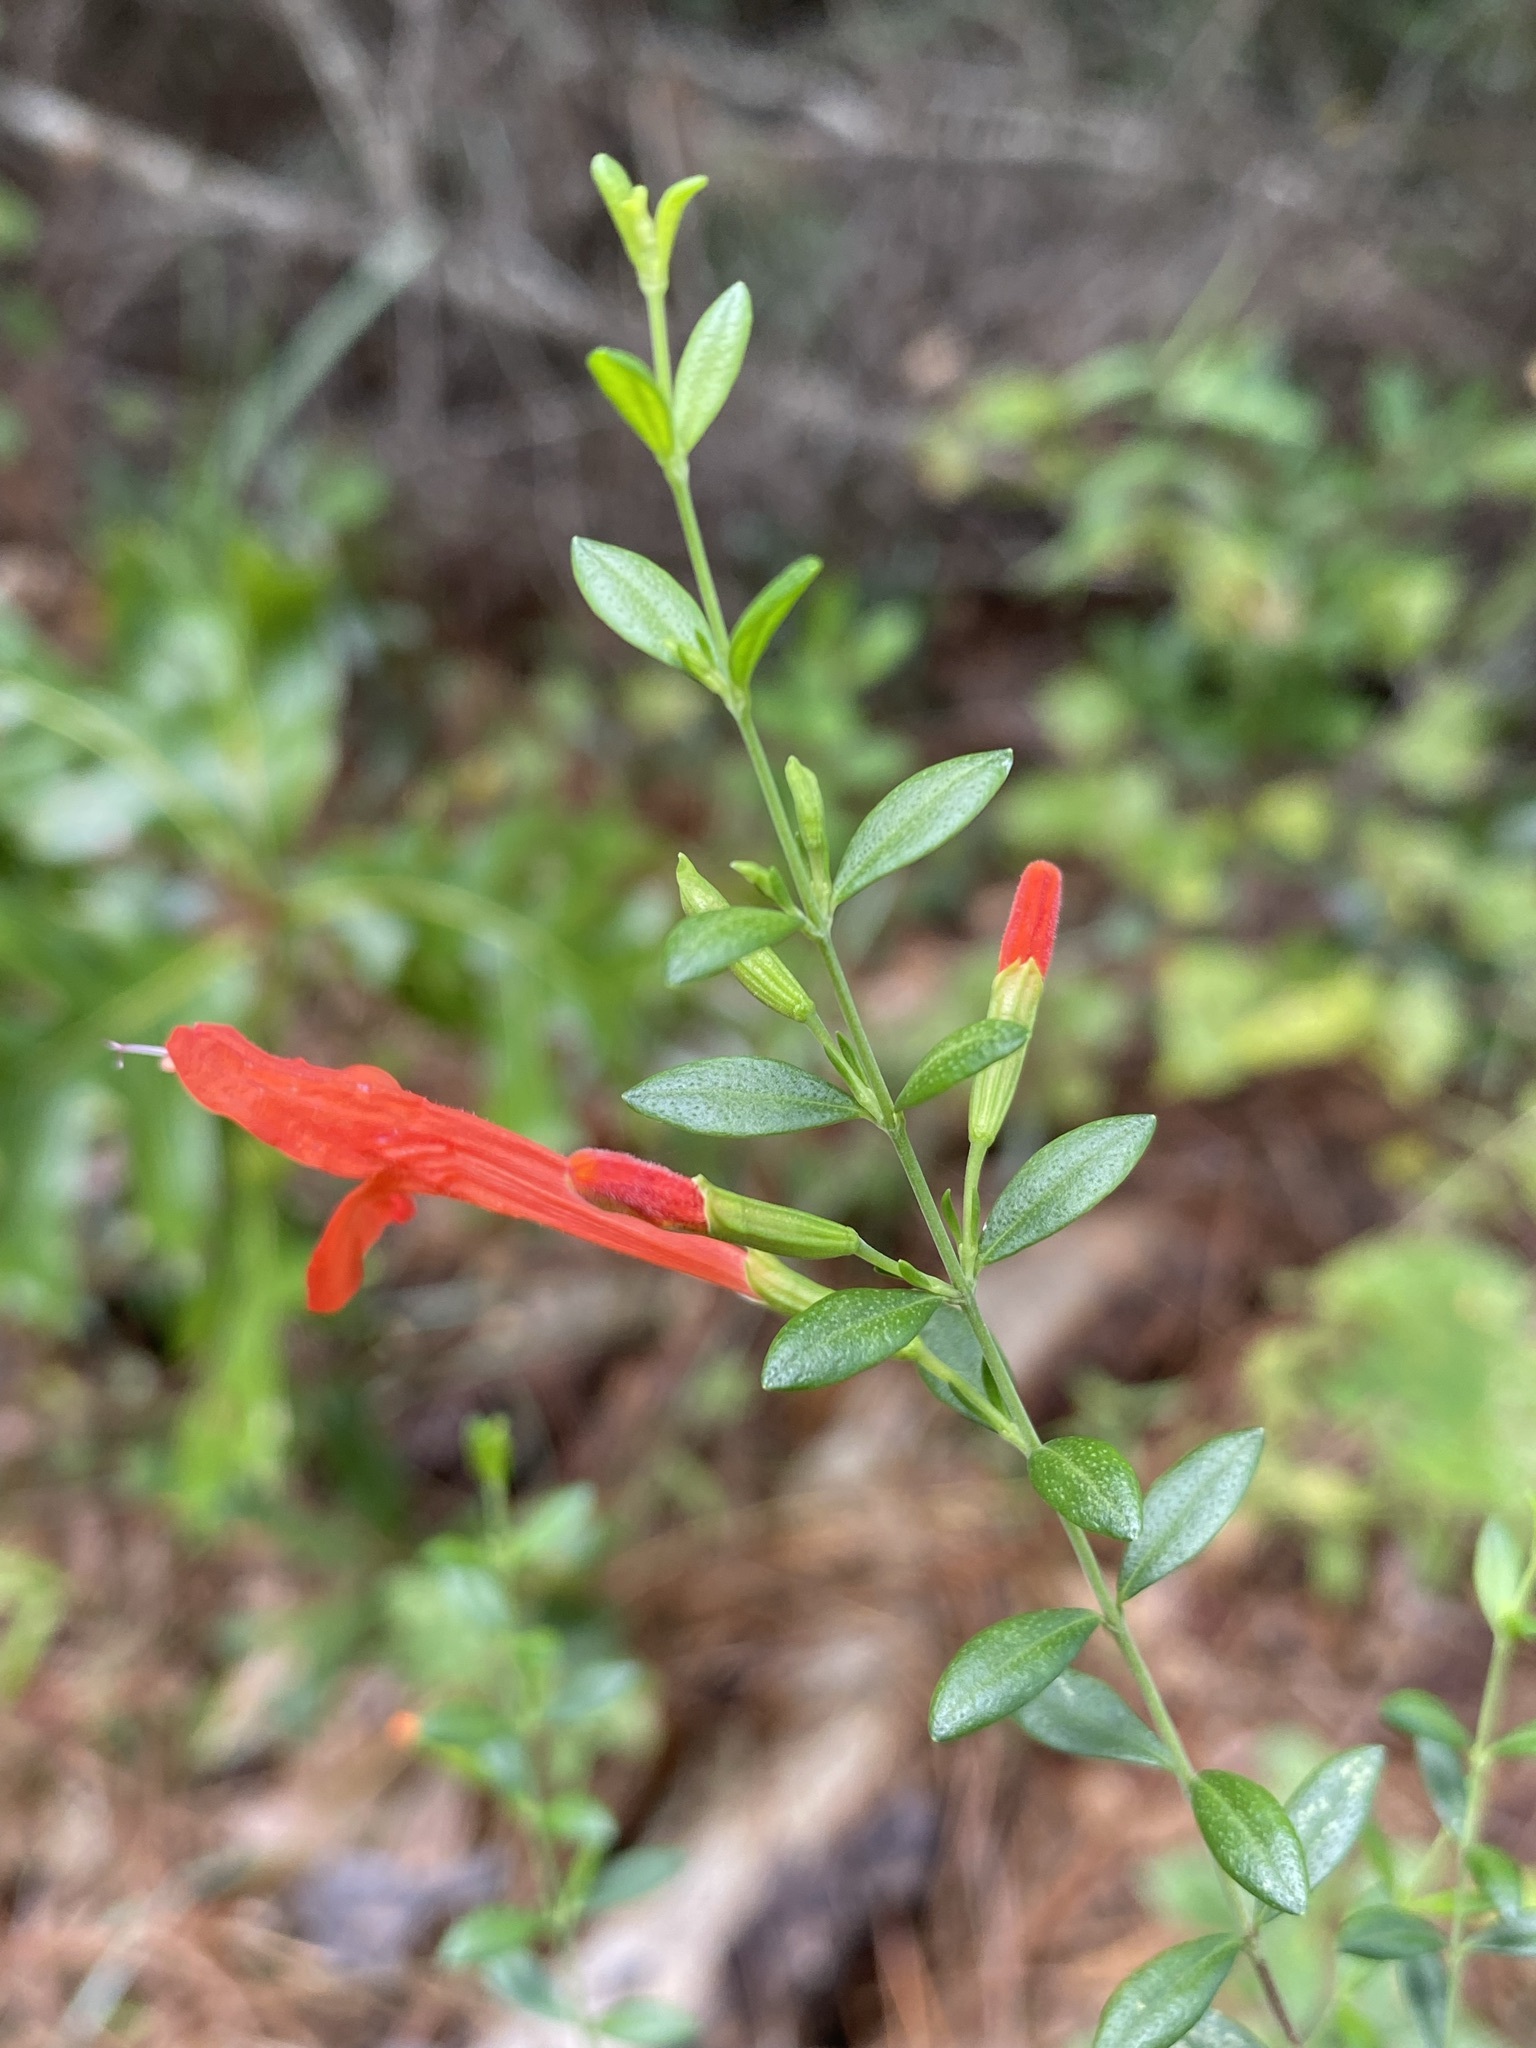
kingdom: Plantae
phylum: Tracheophyta
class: Magnoliopsida
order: Lamiales
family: Lamiaceae
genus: Clinopodium
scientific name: Clinopodium coccineum
